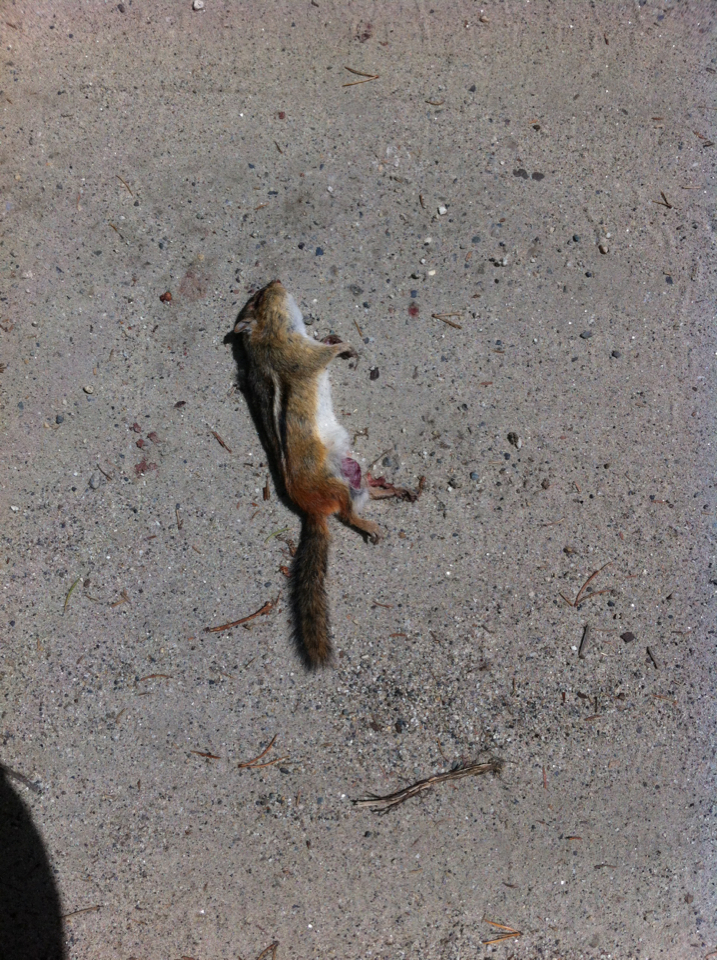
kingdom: Animalia
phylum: Chordata
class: Mammalia
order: Rodentia
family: Sciuridae
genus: Tamias
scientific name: Tamias striatus
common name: Eastern chipmunk
